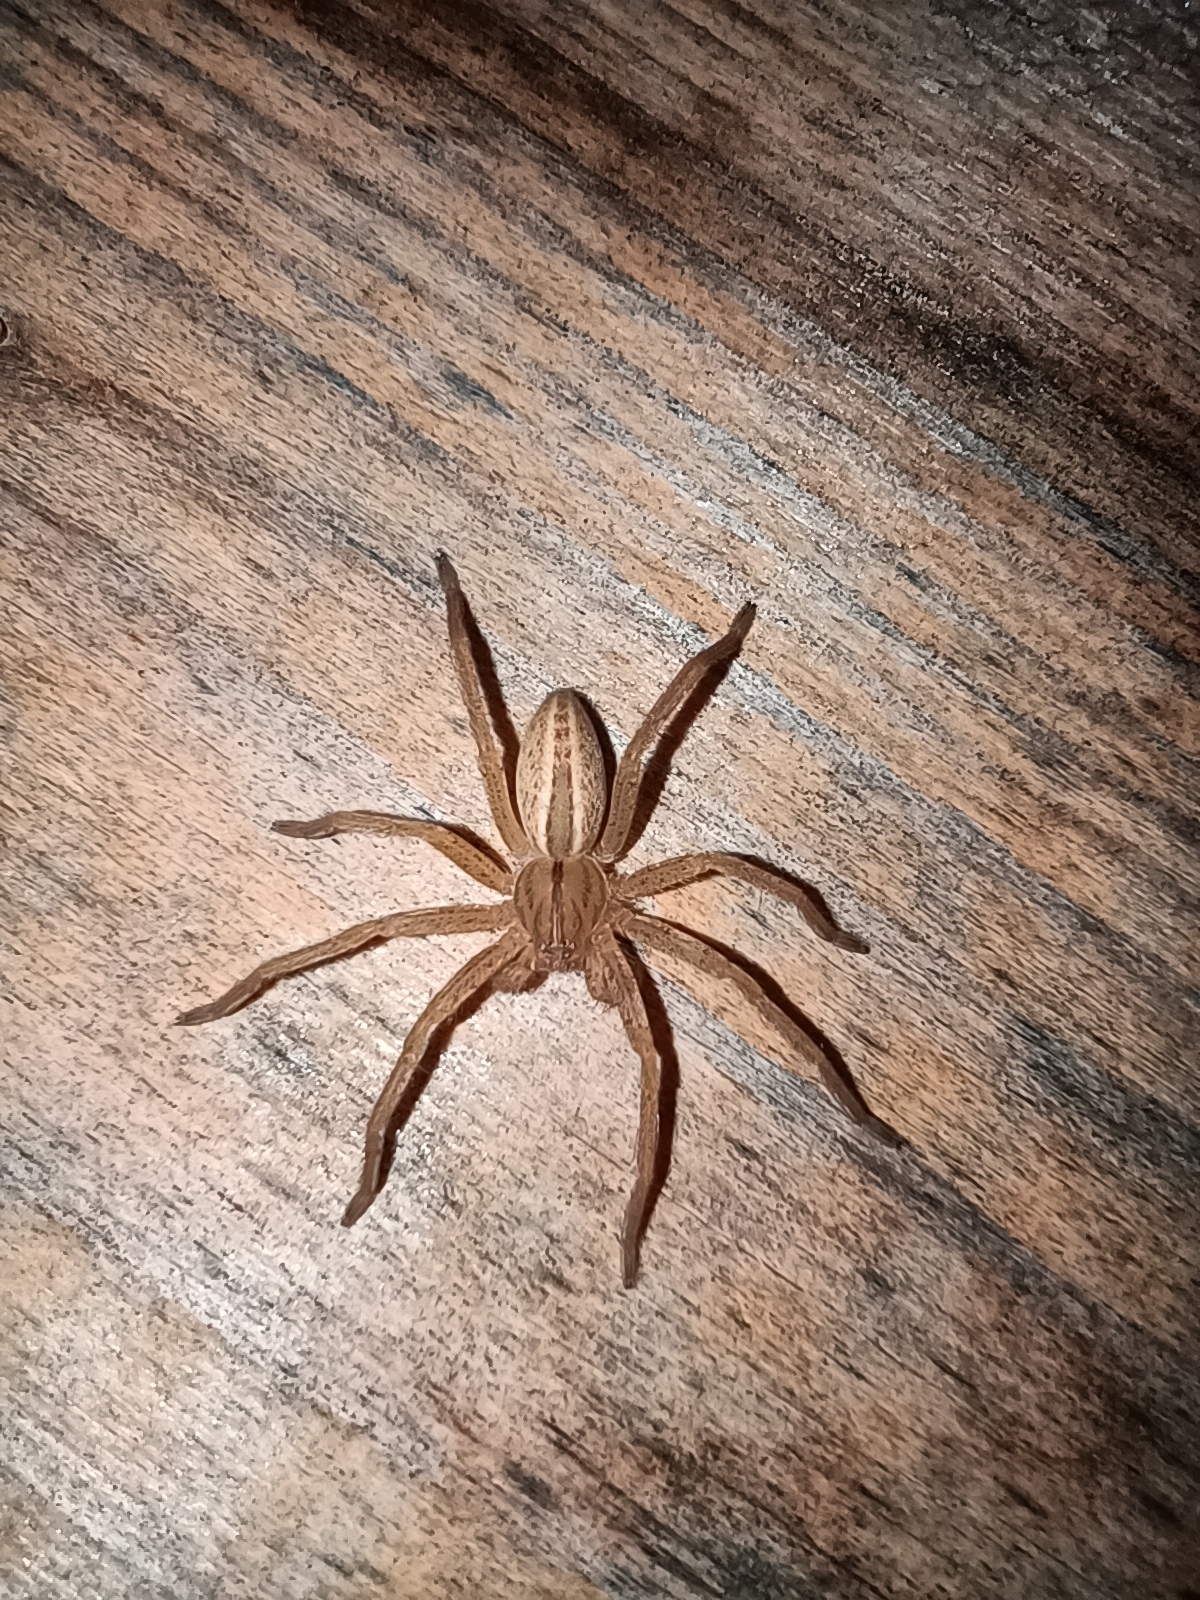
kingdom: Animalia
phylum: Arthropoda
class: Arachnida
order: Araneae
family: Sparassidae
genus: Micrommata
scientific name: Micrommata virescens
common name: Green spider
